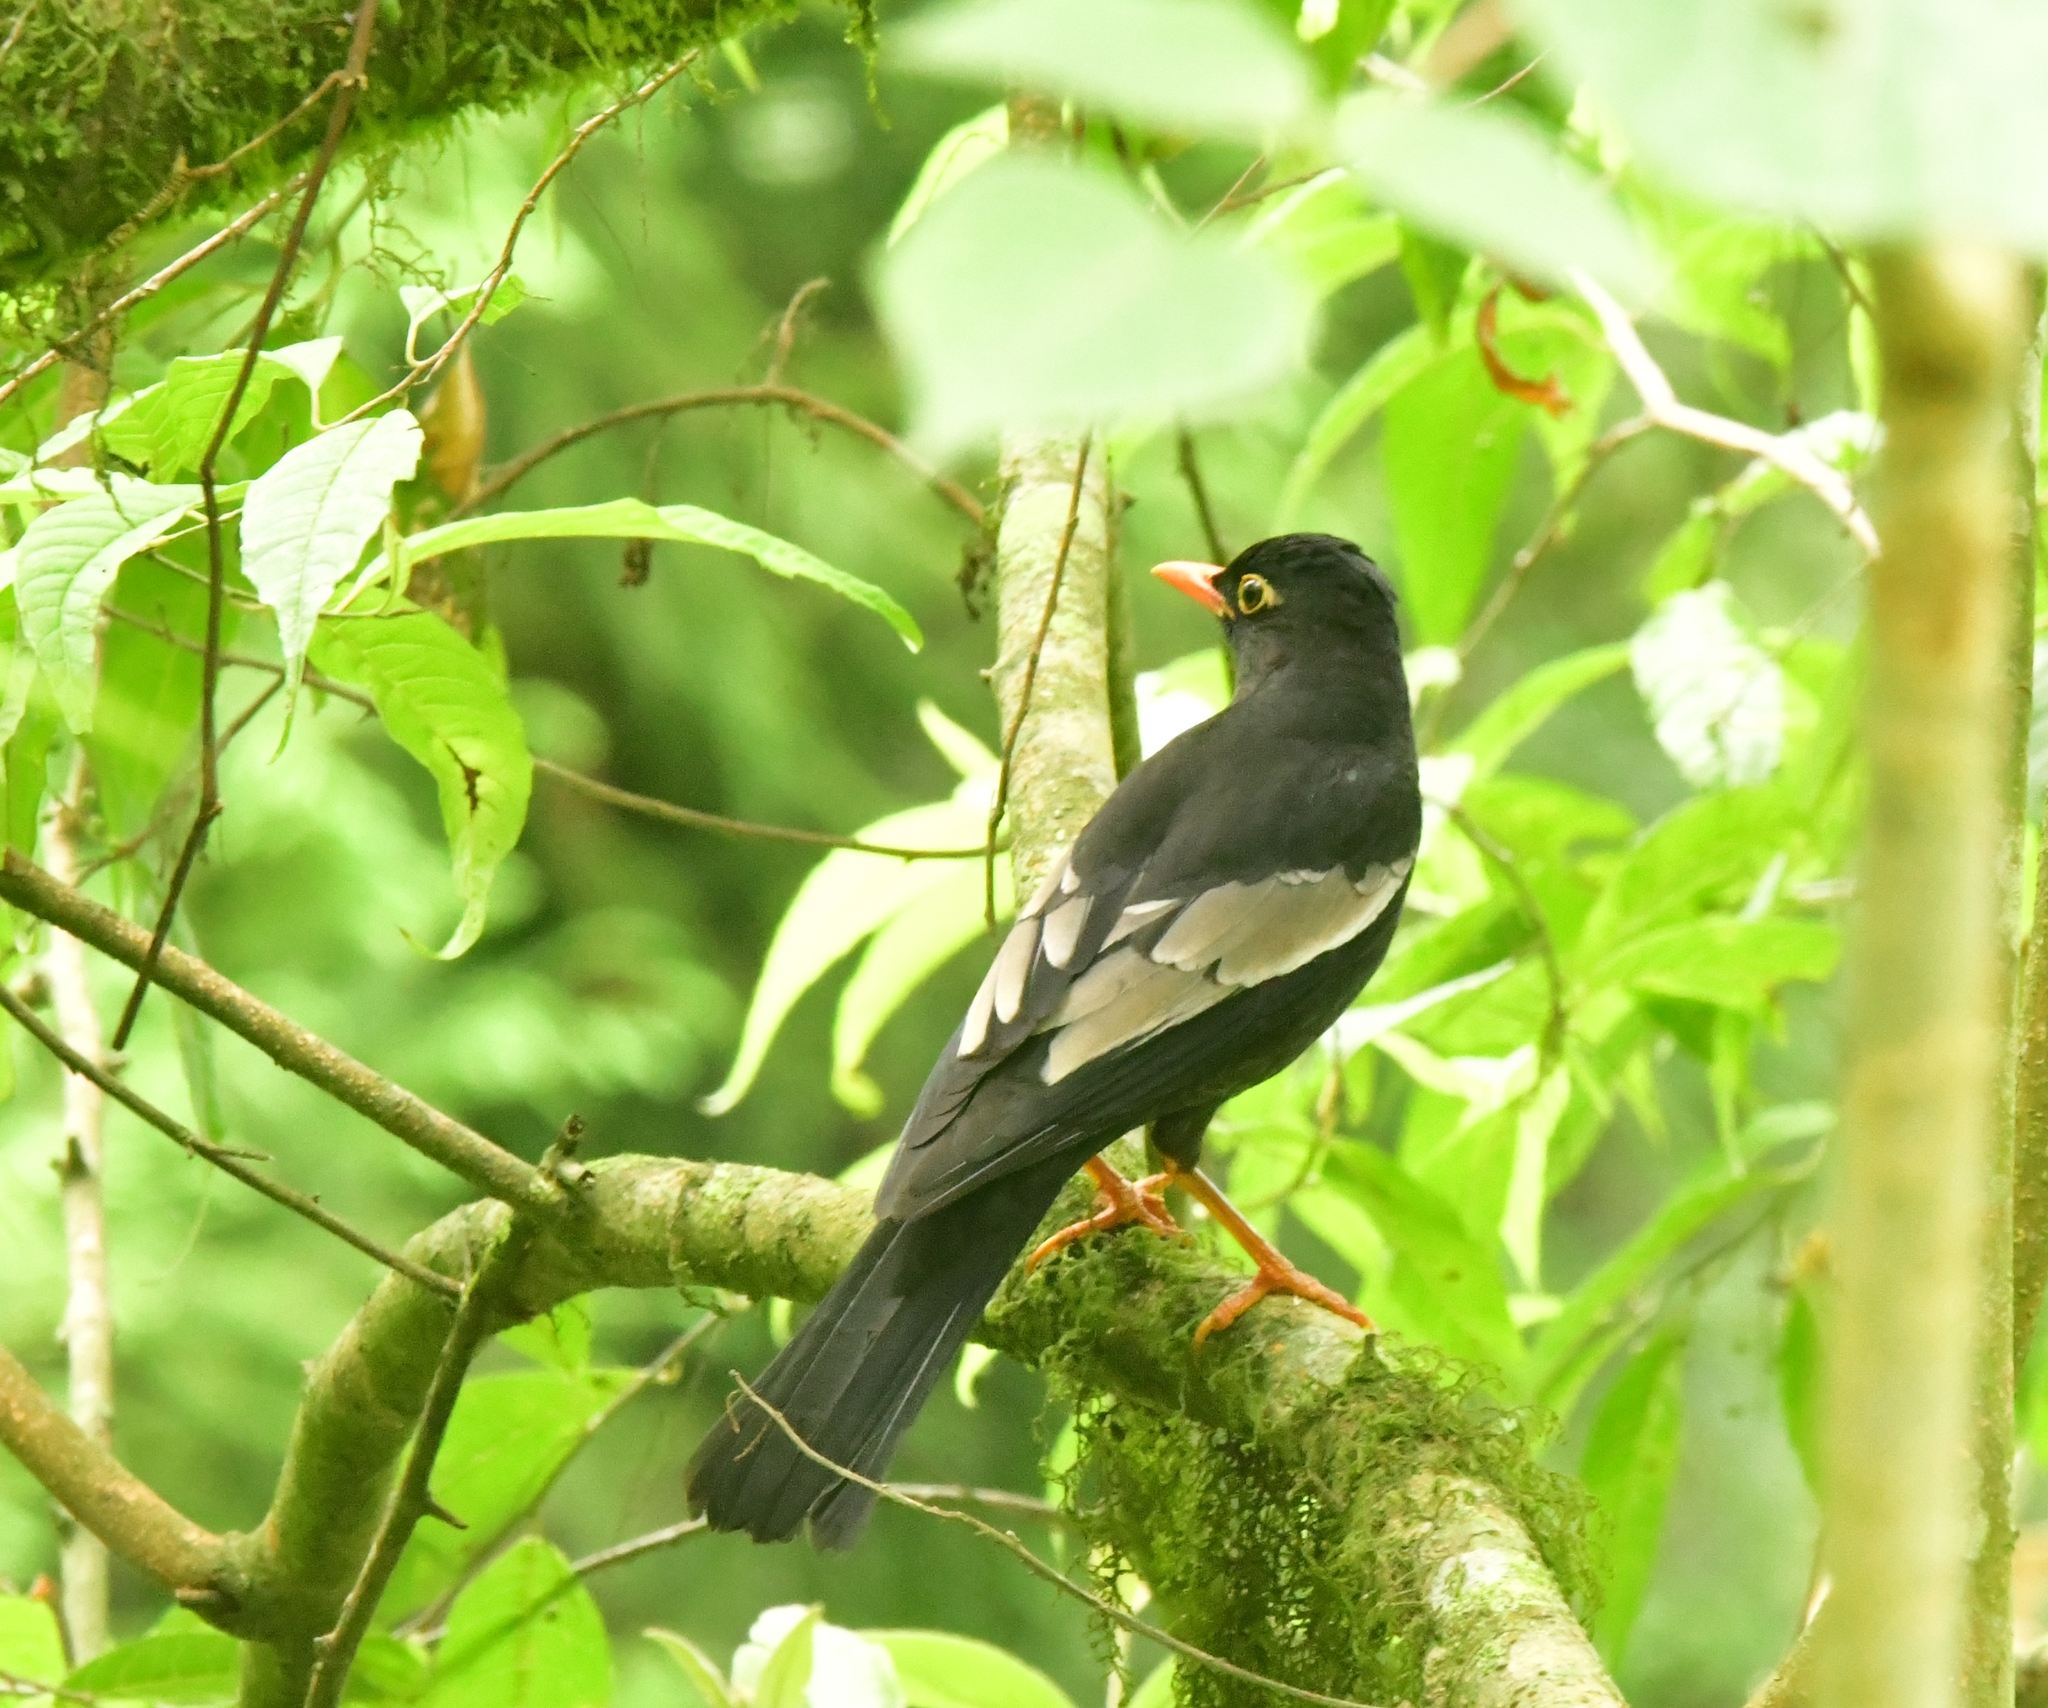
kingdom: Animalia
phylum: Chordata
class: Aves
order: Passeriformes
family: Turdidae
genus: Turdus
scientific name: Turdus boulboul
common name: Grey-winged blackbird
